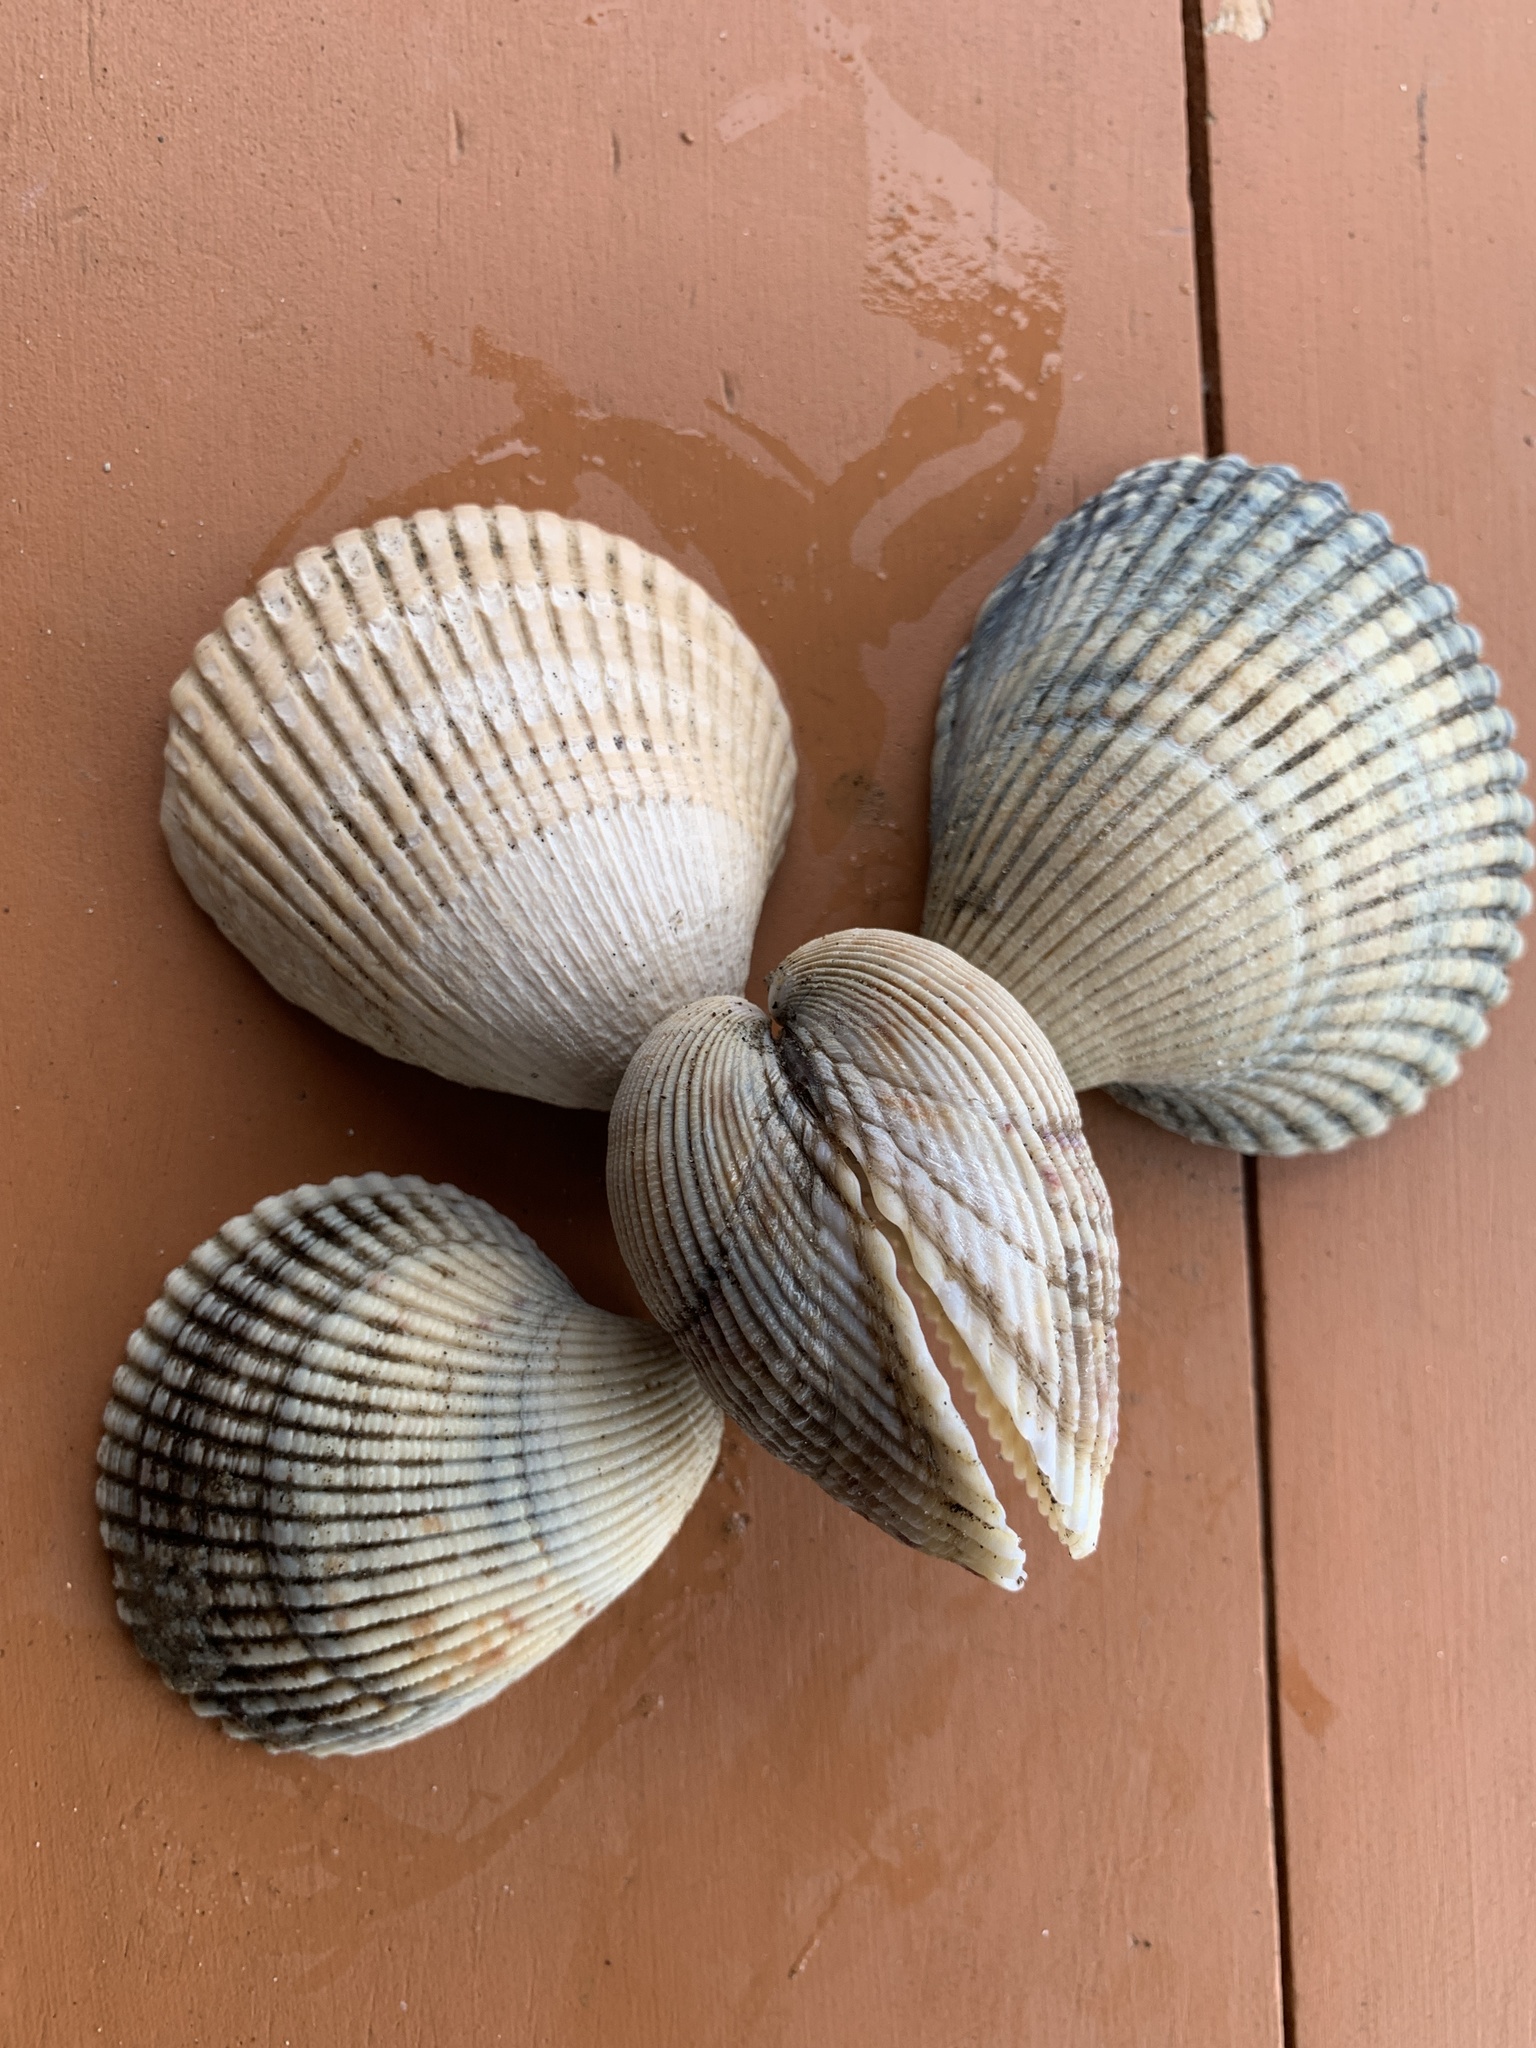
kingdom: Animalia
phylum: Mollusca
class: Bivalvia
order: Cardiida
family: Cardiidae
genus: Clinocardium
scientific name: Clinocardium nuttallii
